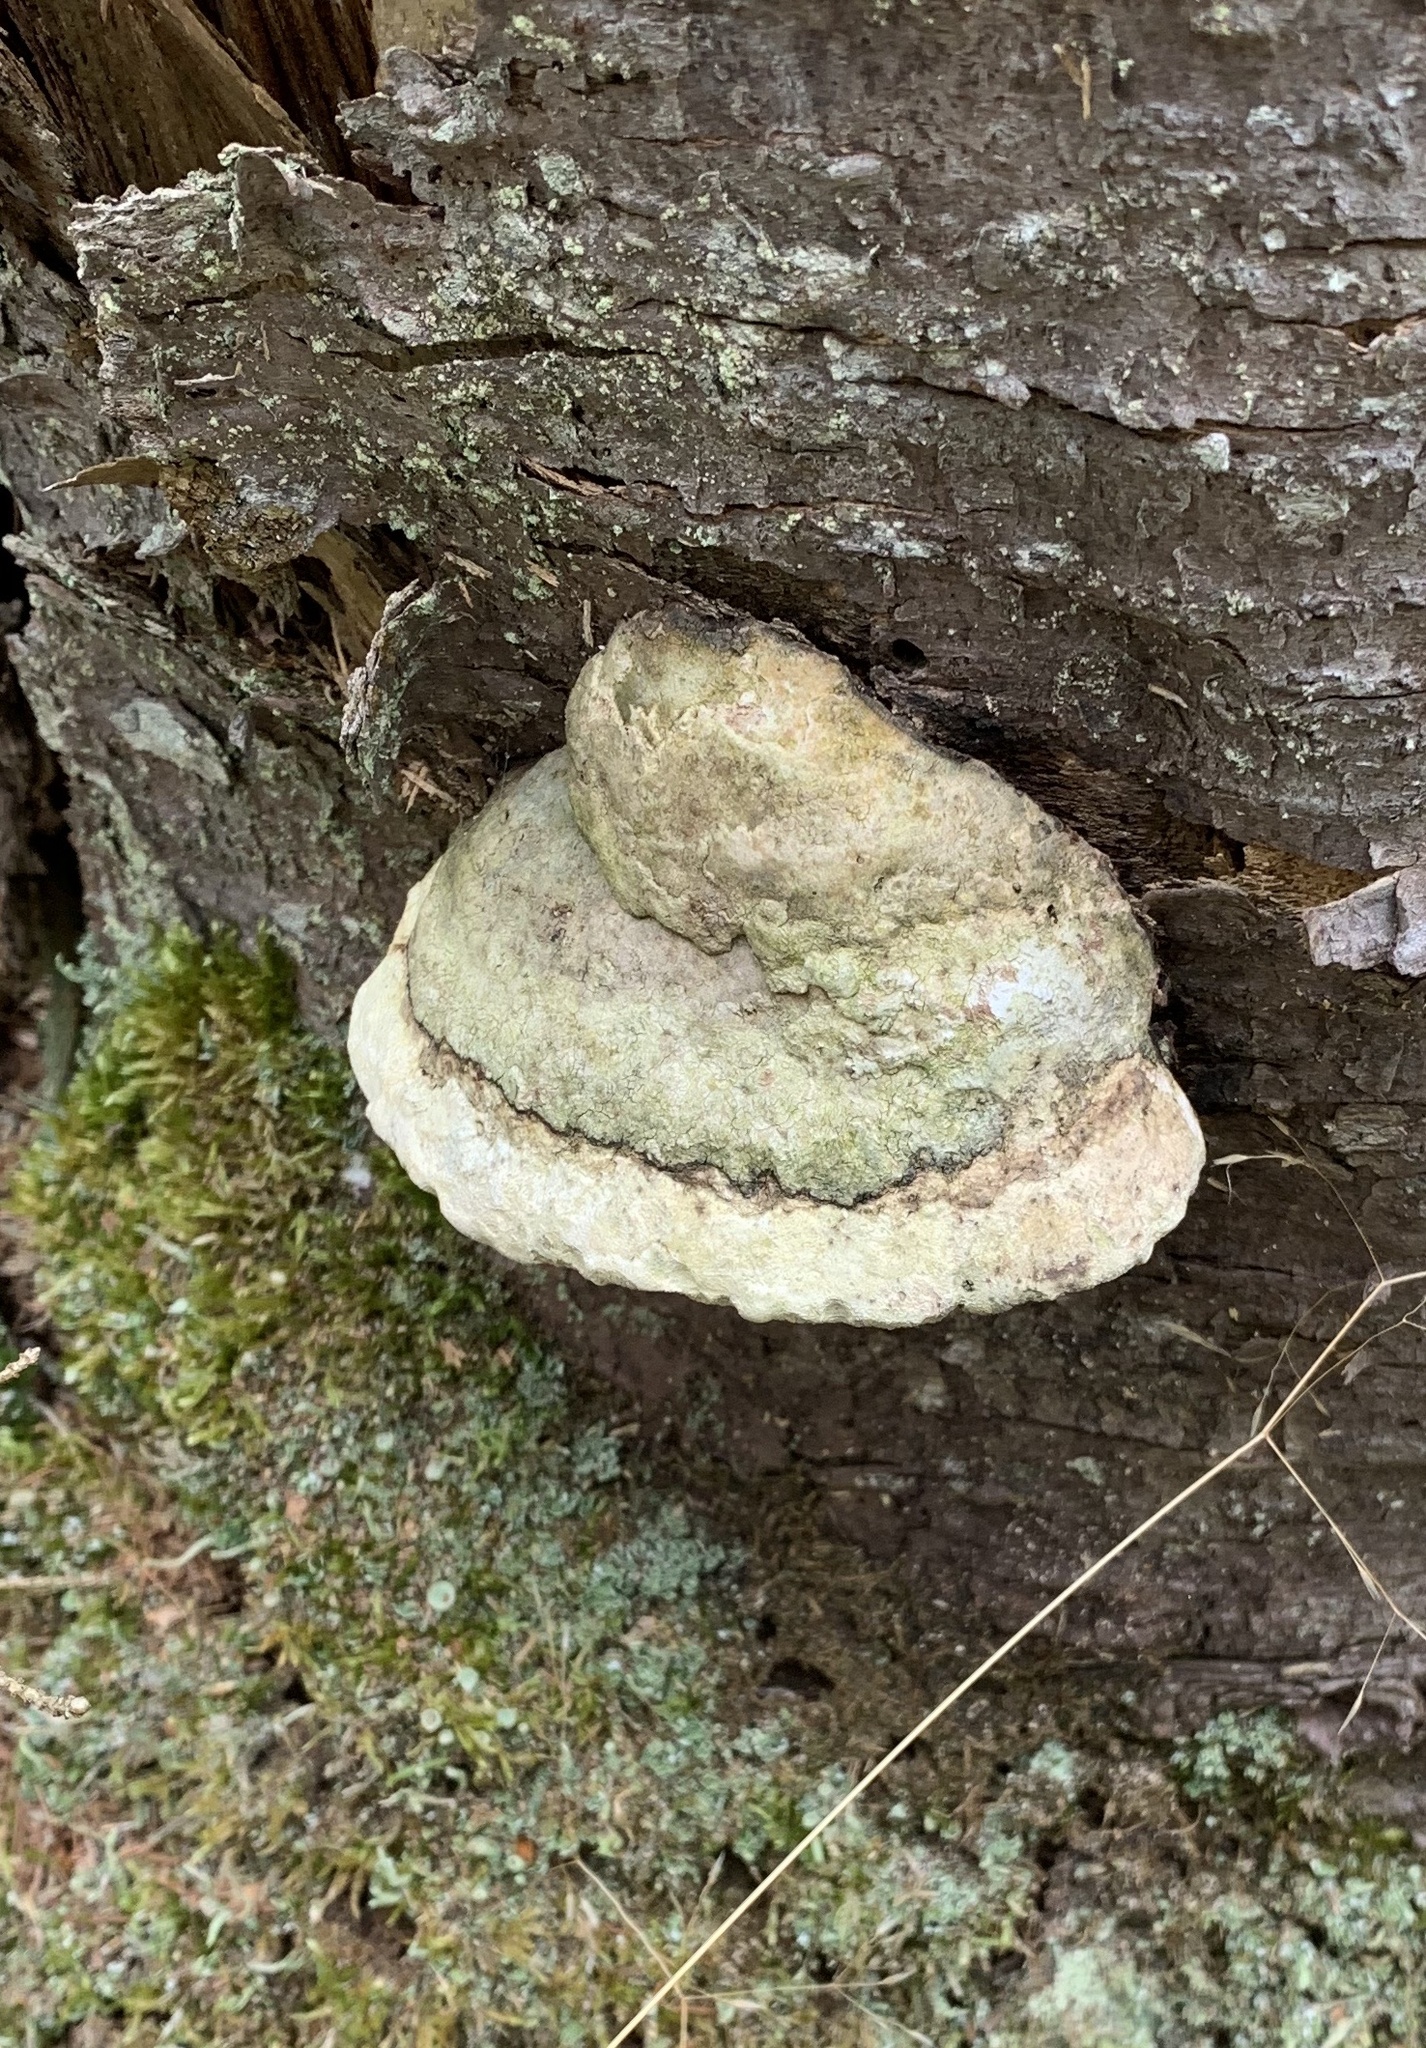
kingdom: Fungi
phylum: Basidiomycota
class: Agaricomycetes
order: Polyporales
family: Polyporaceae
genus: Fomes
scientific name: Fomes fomentarius
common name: Hoof fungus
